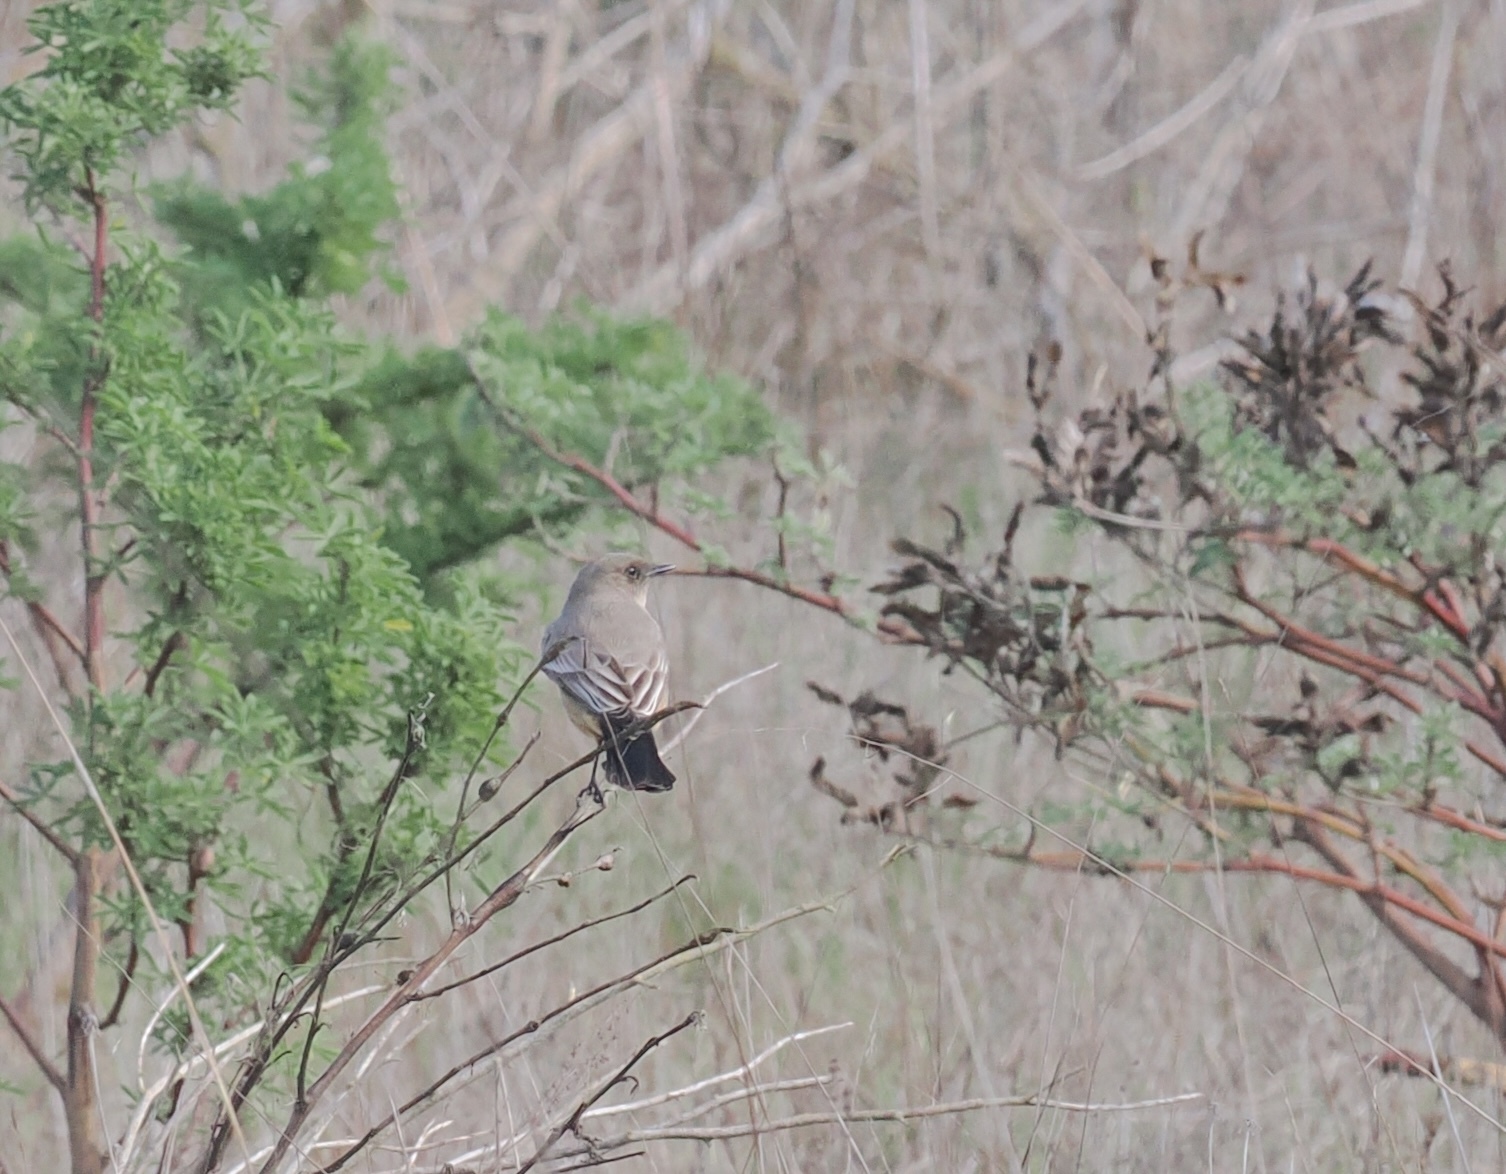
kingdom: Animalia
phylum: Chordata
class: Aves
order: Passeriformes
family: Tyrannidae
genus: Sayornis
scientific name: Sayornis saya
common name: Say's phoebe
